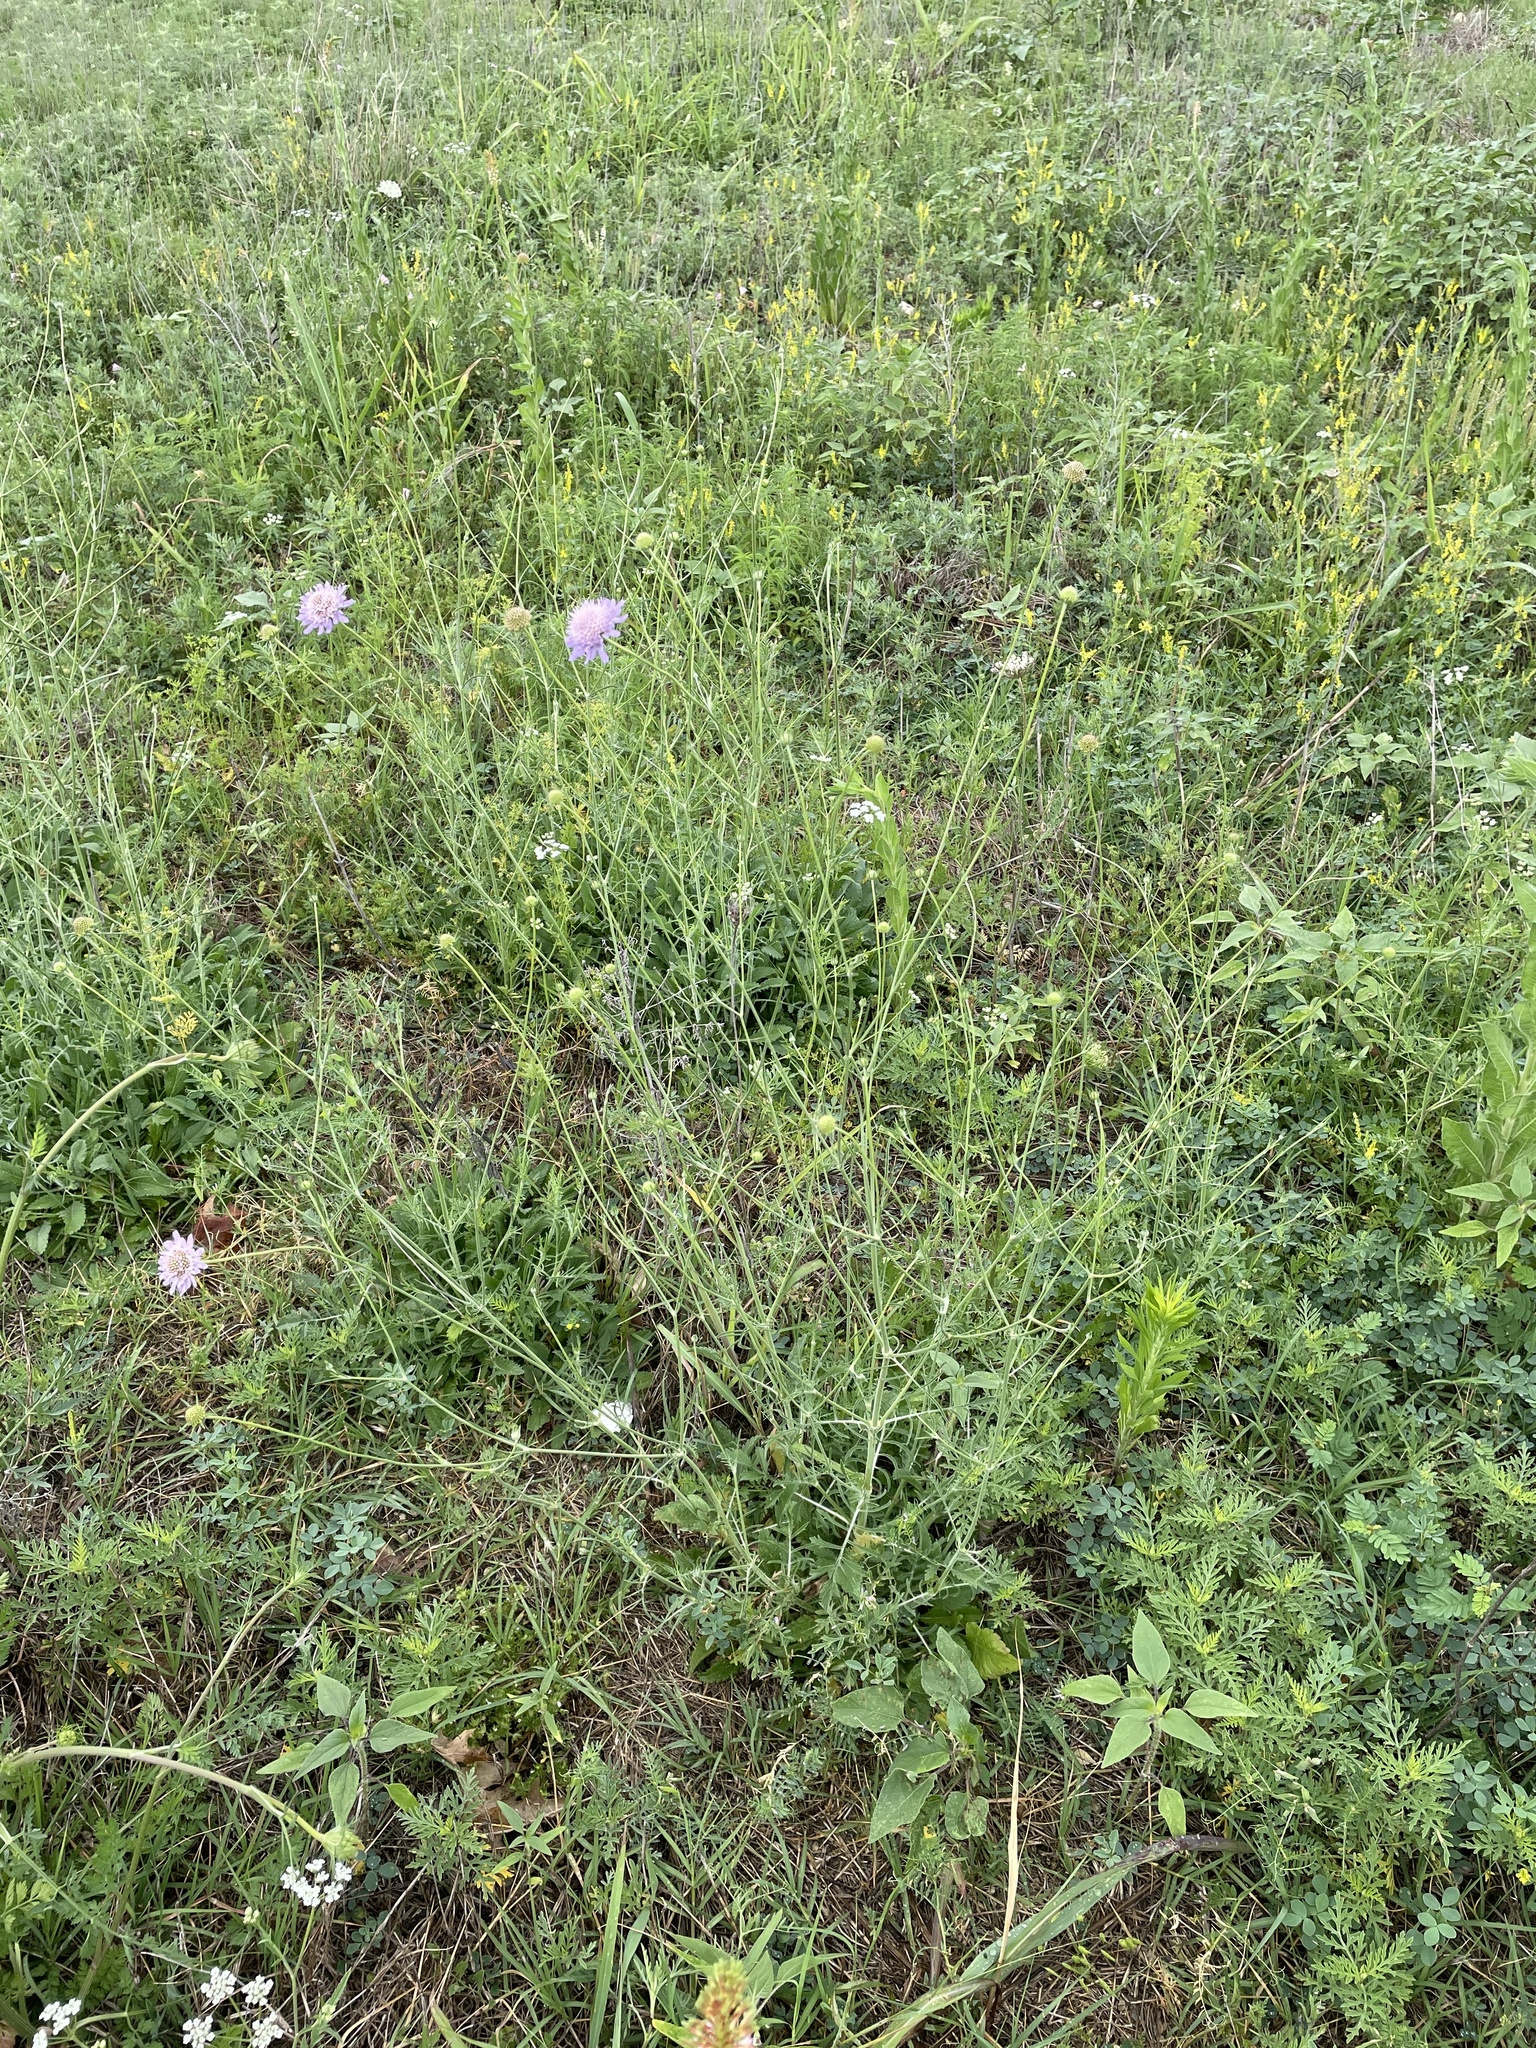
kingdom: Plantae
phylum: Tracheophyta
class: Magnoliopsida
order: Dipsacales
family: Caprifoliaceae
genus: Sixalix
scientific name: Sixalix atropurpurea
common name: Sweet scabious
